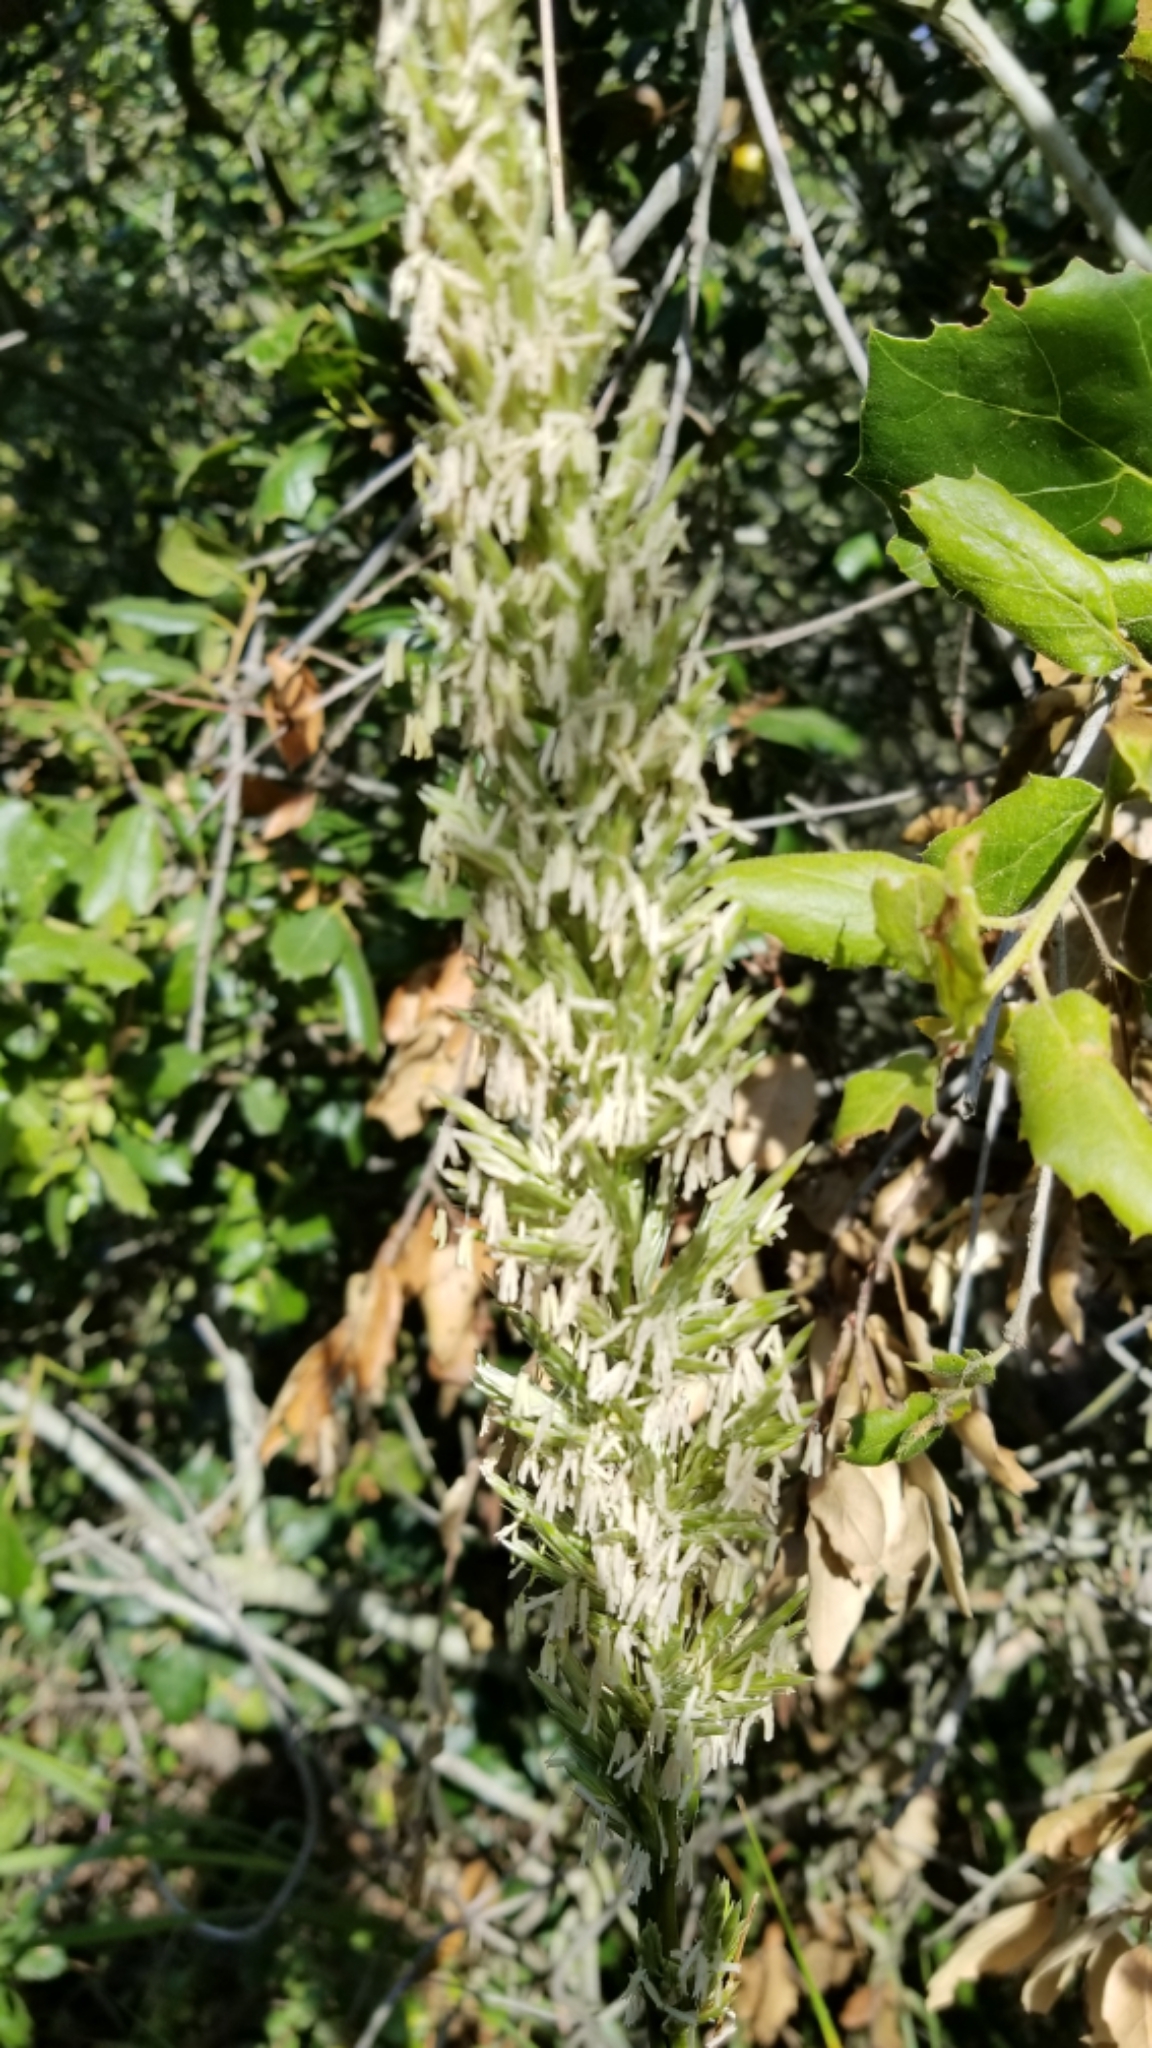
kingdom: Plantae
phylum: Tracheophyta
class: Liliopsida
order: Poales
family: Poaceae
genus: Leymus
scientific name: Leymus condensatus
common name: Giant wild rye
